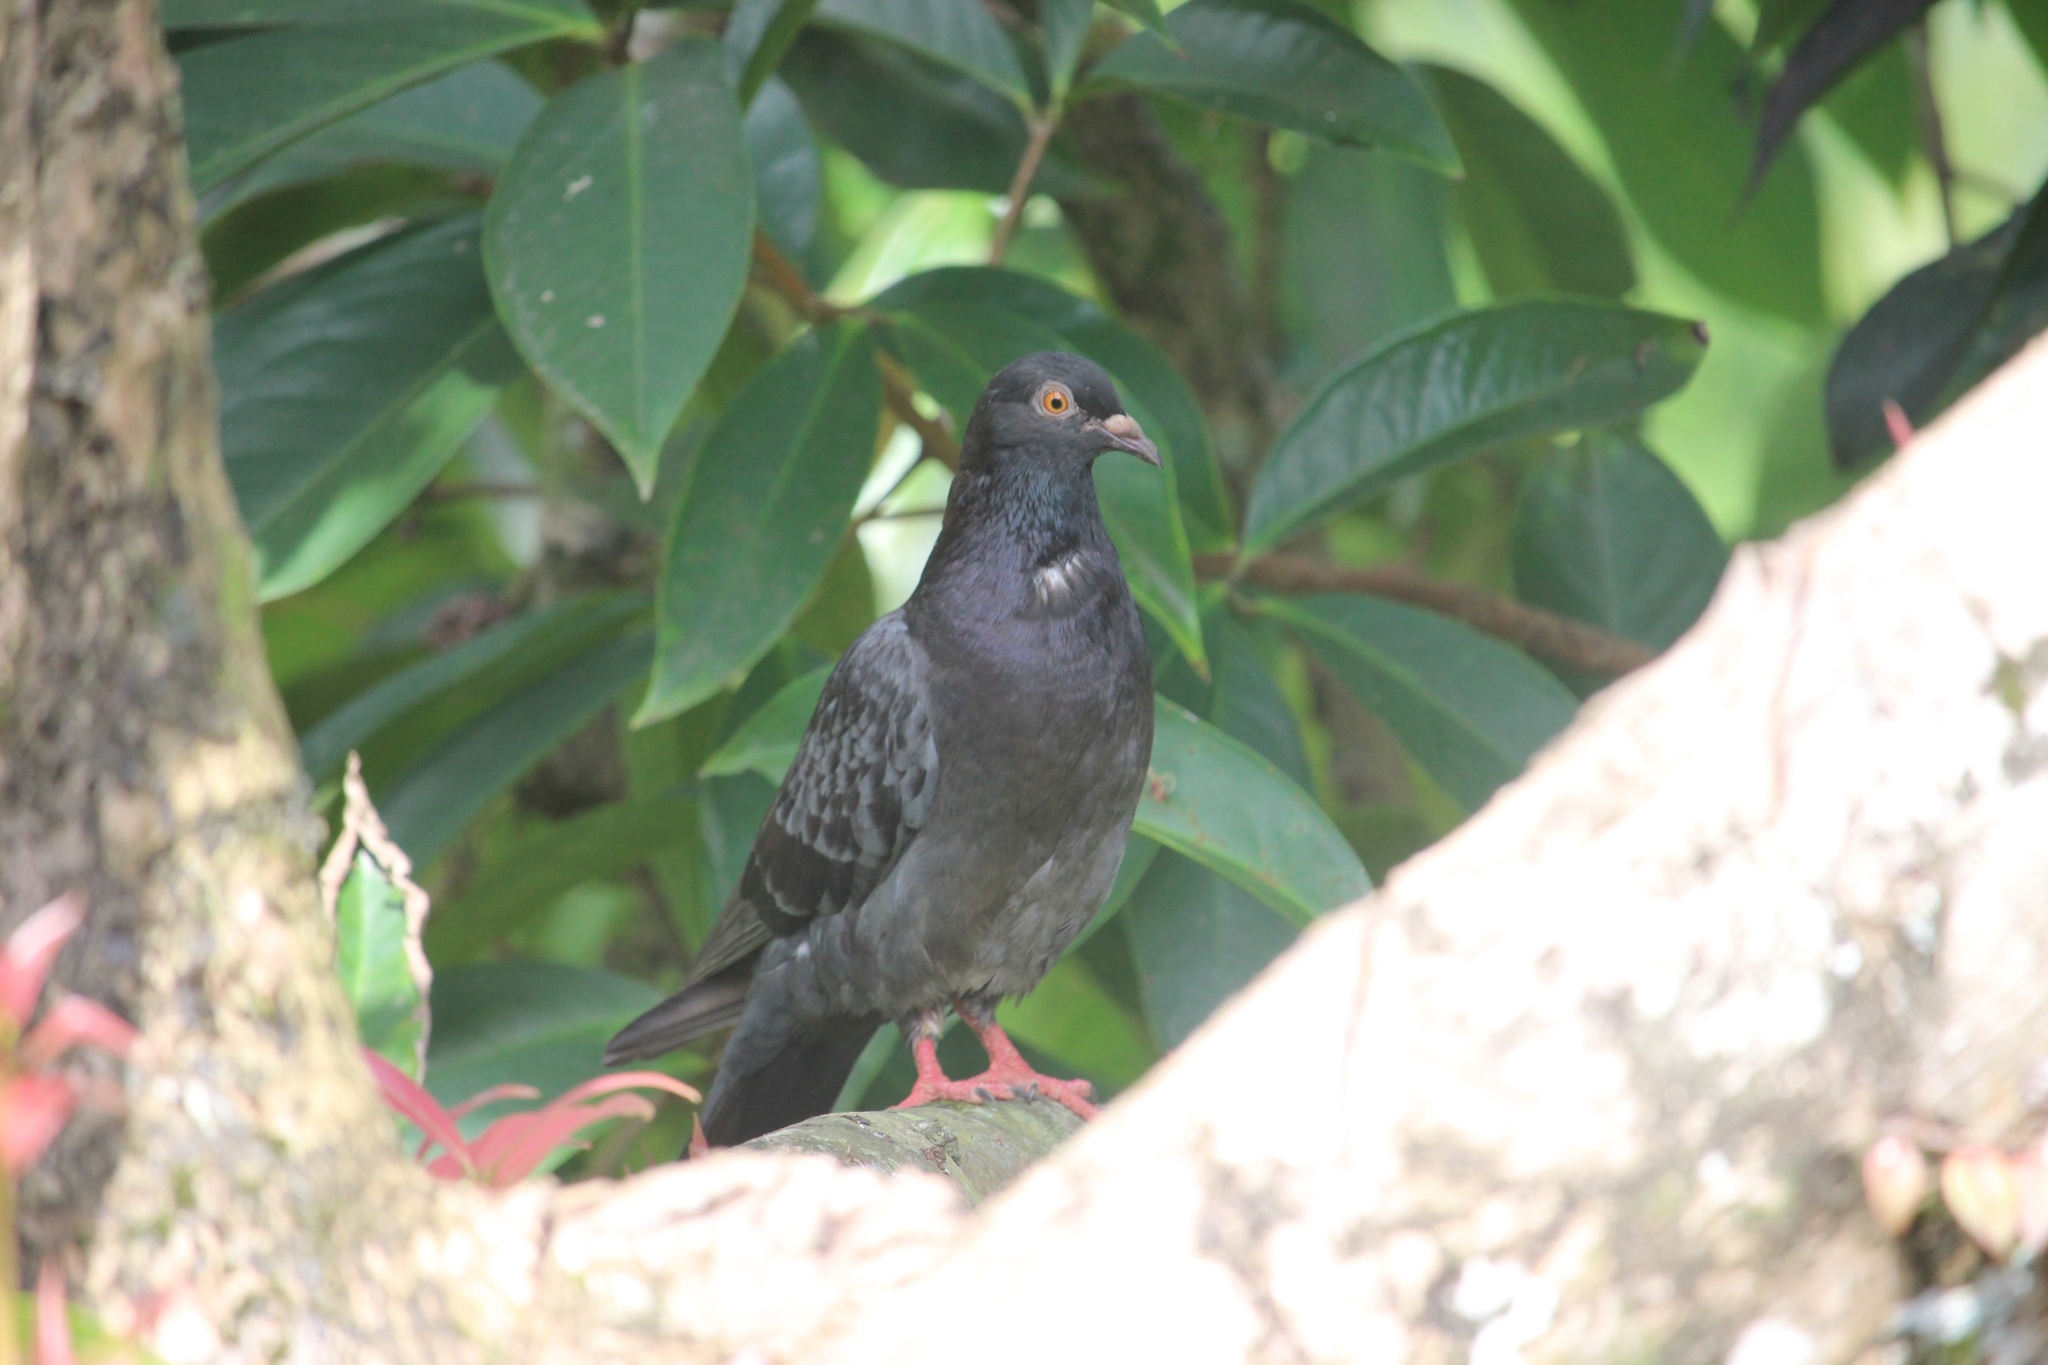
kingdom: Animalia
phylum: Chordata
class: Aves
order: Columbiformes
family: Columbidae
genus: Columba
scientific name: Columba livia
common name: Rock pigeon
